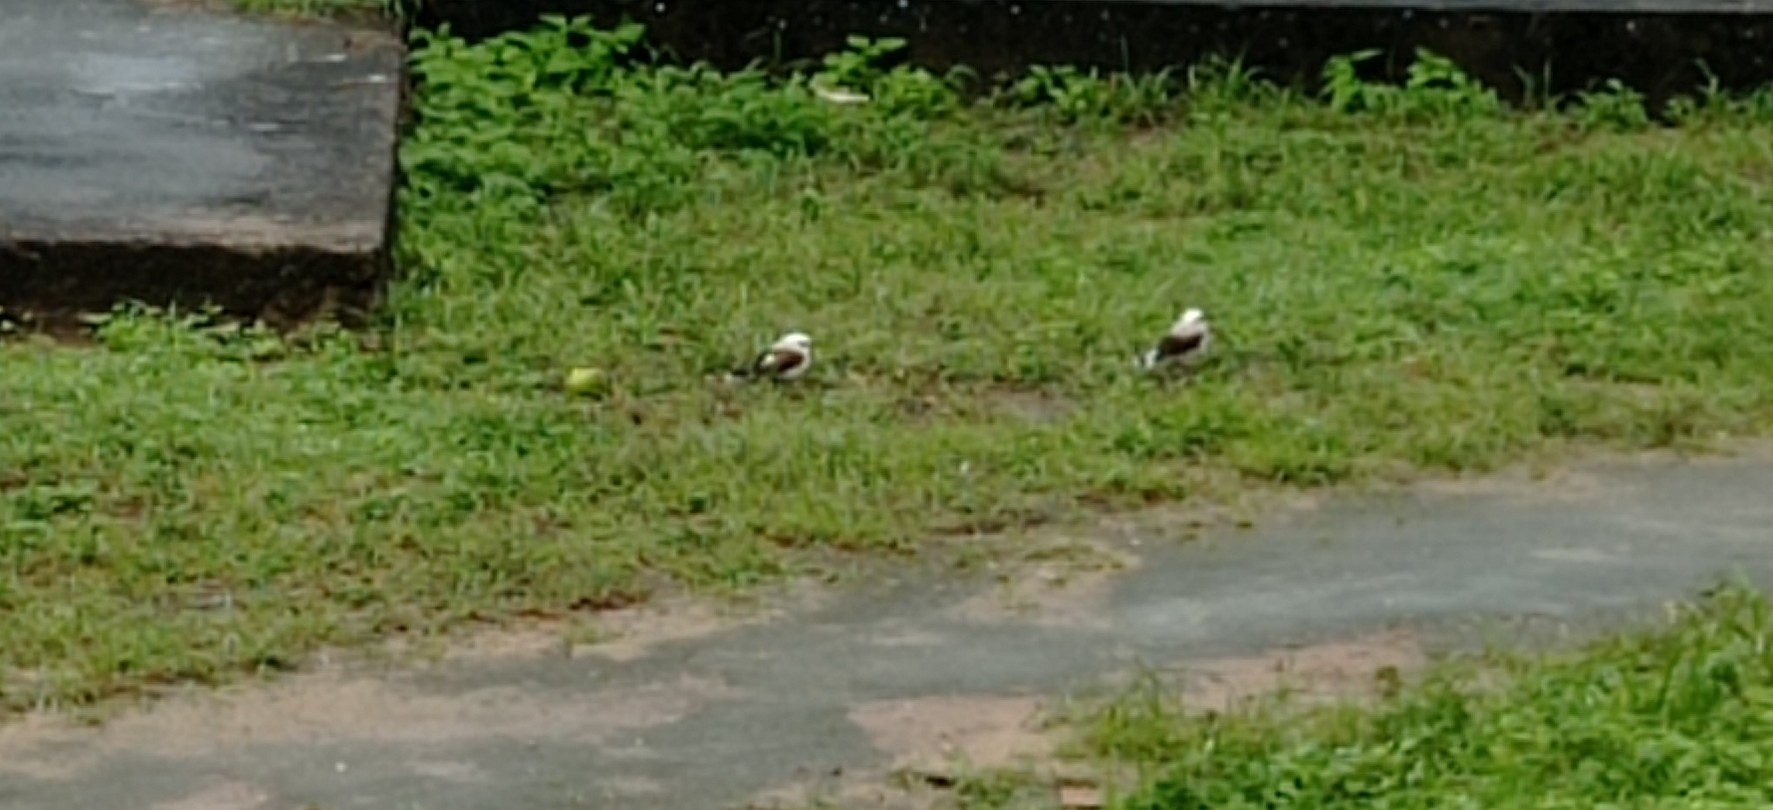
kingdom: Animalia
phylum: Chordata
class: Aves
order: Passeriformes
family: Tyrannidae
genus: Fluvicola
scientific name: Fluvicola nengeta
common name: Masked water tyrant
